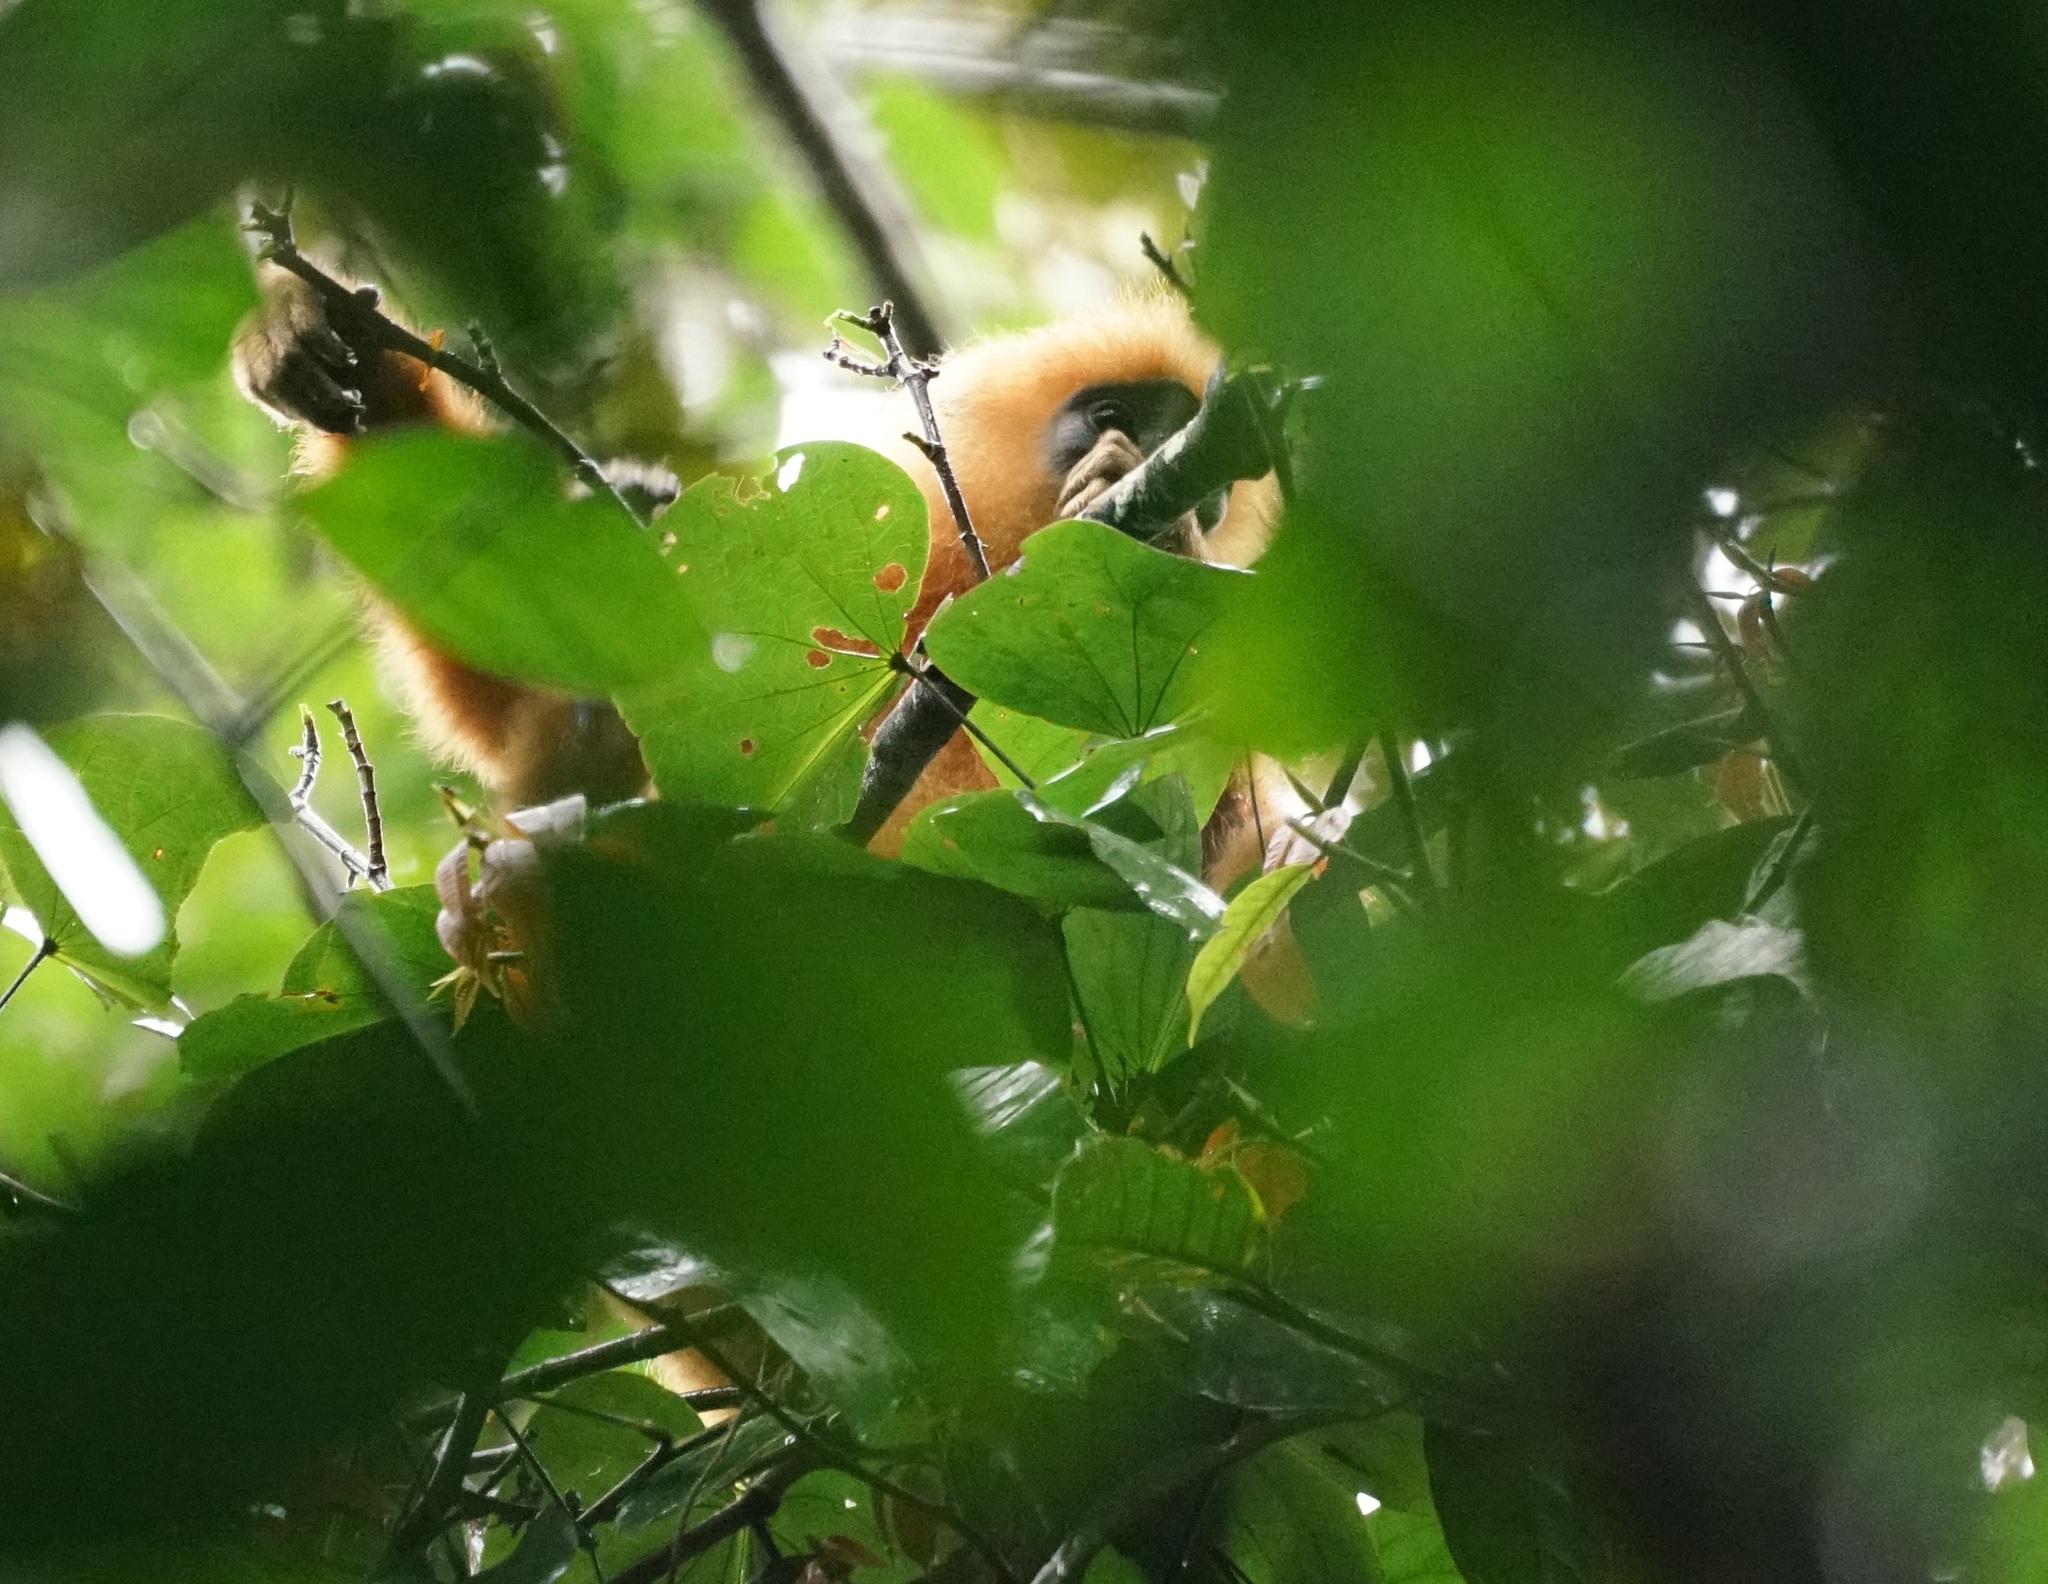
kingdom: Animalia
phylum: Chordata
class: Mammalia
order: Primates
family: Cercopithecidae
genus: Presbytis
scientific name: Presbytis rubicunda
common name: Maroon leaf monkey
